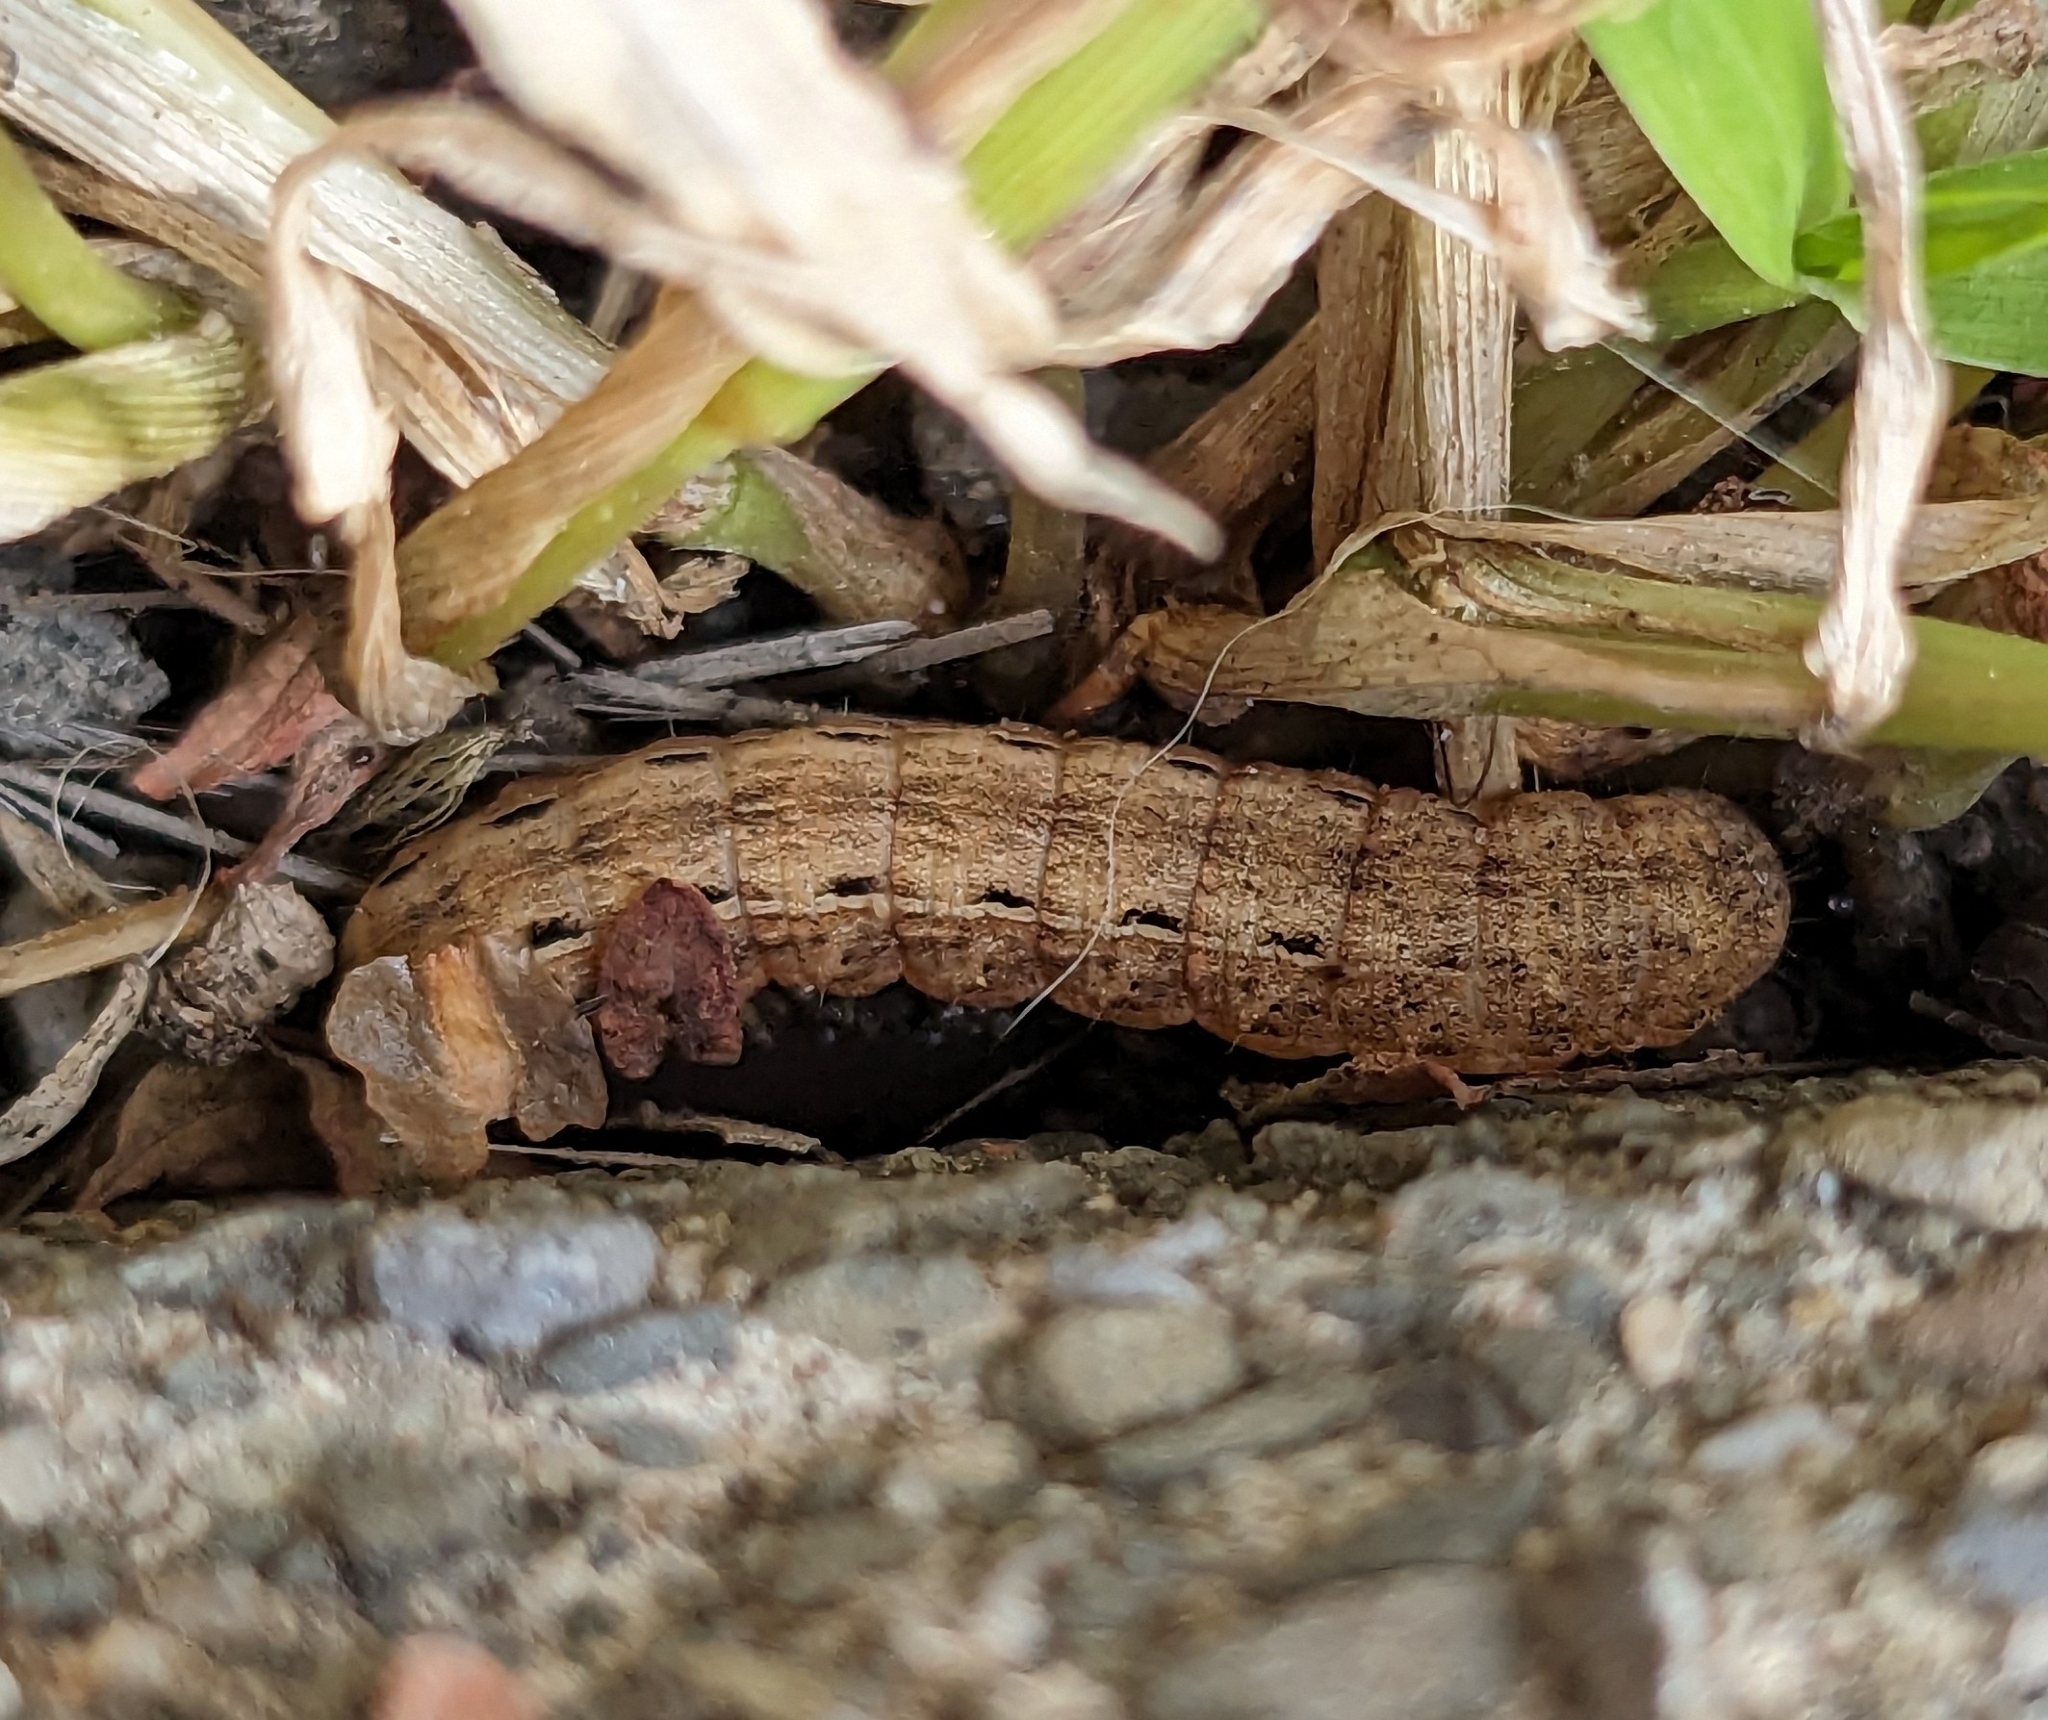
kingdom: Animalia
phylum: Arthropoda
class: Insecta
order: Lepidoptera
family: Noctuidae
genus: Noctua
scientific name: Noctua pronuba
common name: Large yellow underwing
